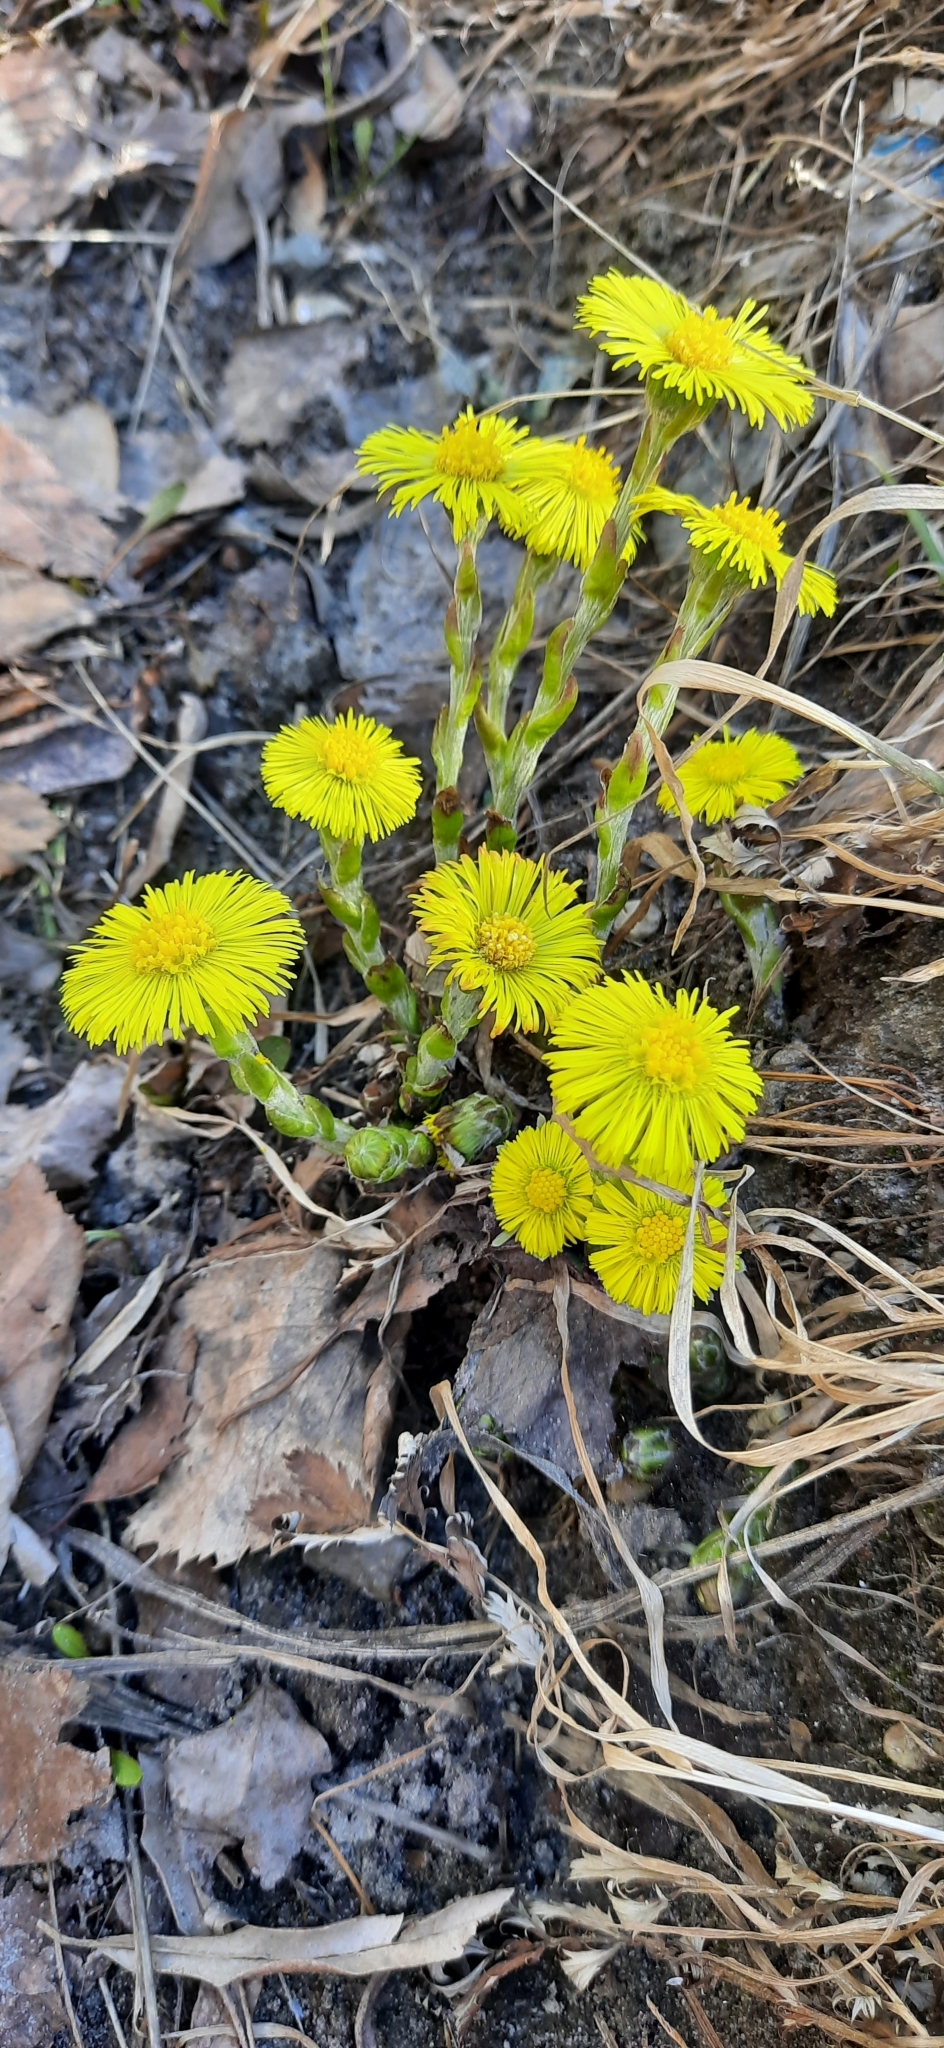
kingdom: Plantae
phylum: Tracheophyta
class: Magnoliopsida
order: Asterales
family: Asteraceae
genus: Tussilago
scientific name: Tussilago farfara
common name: Coltsfoot
